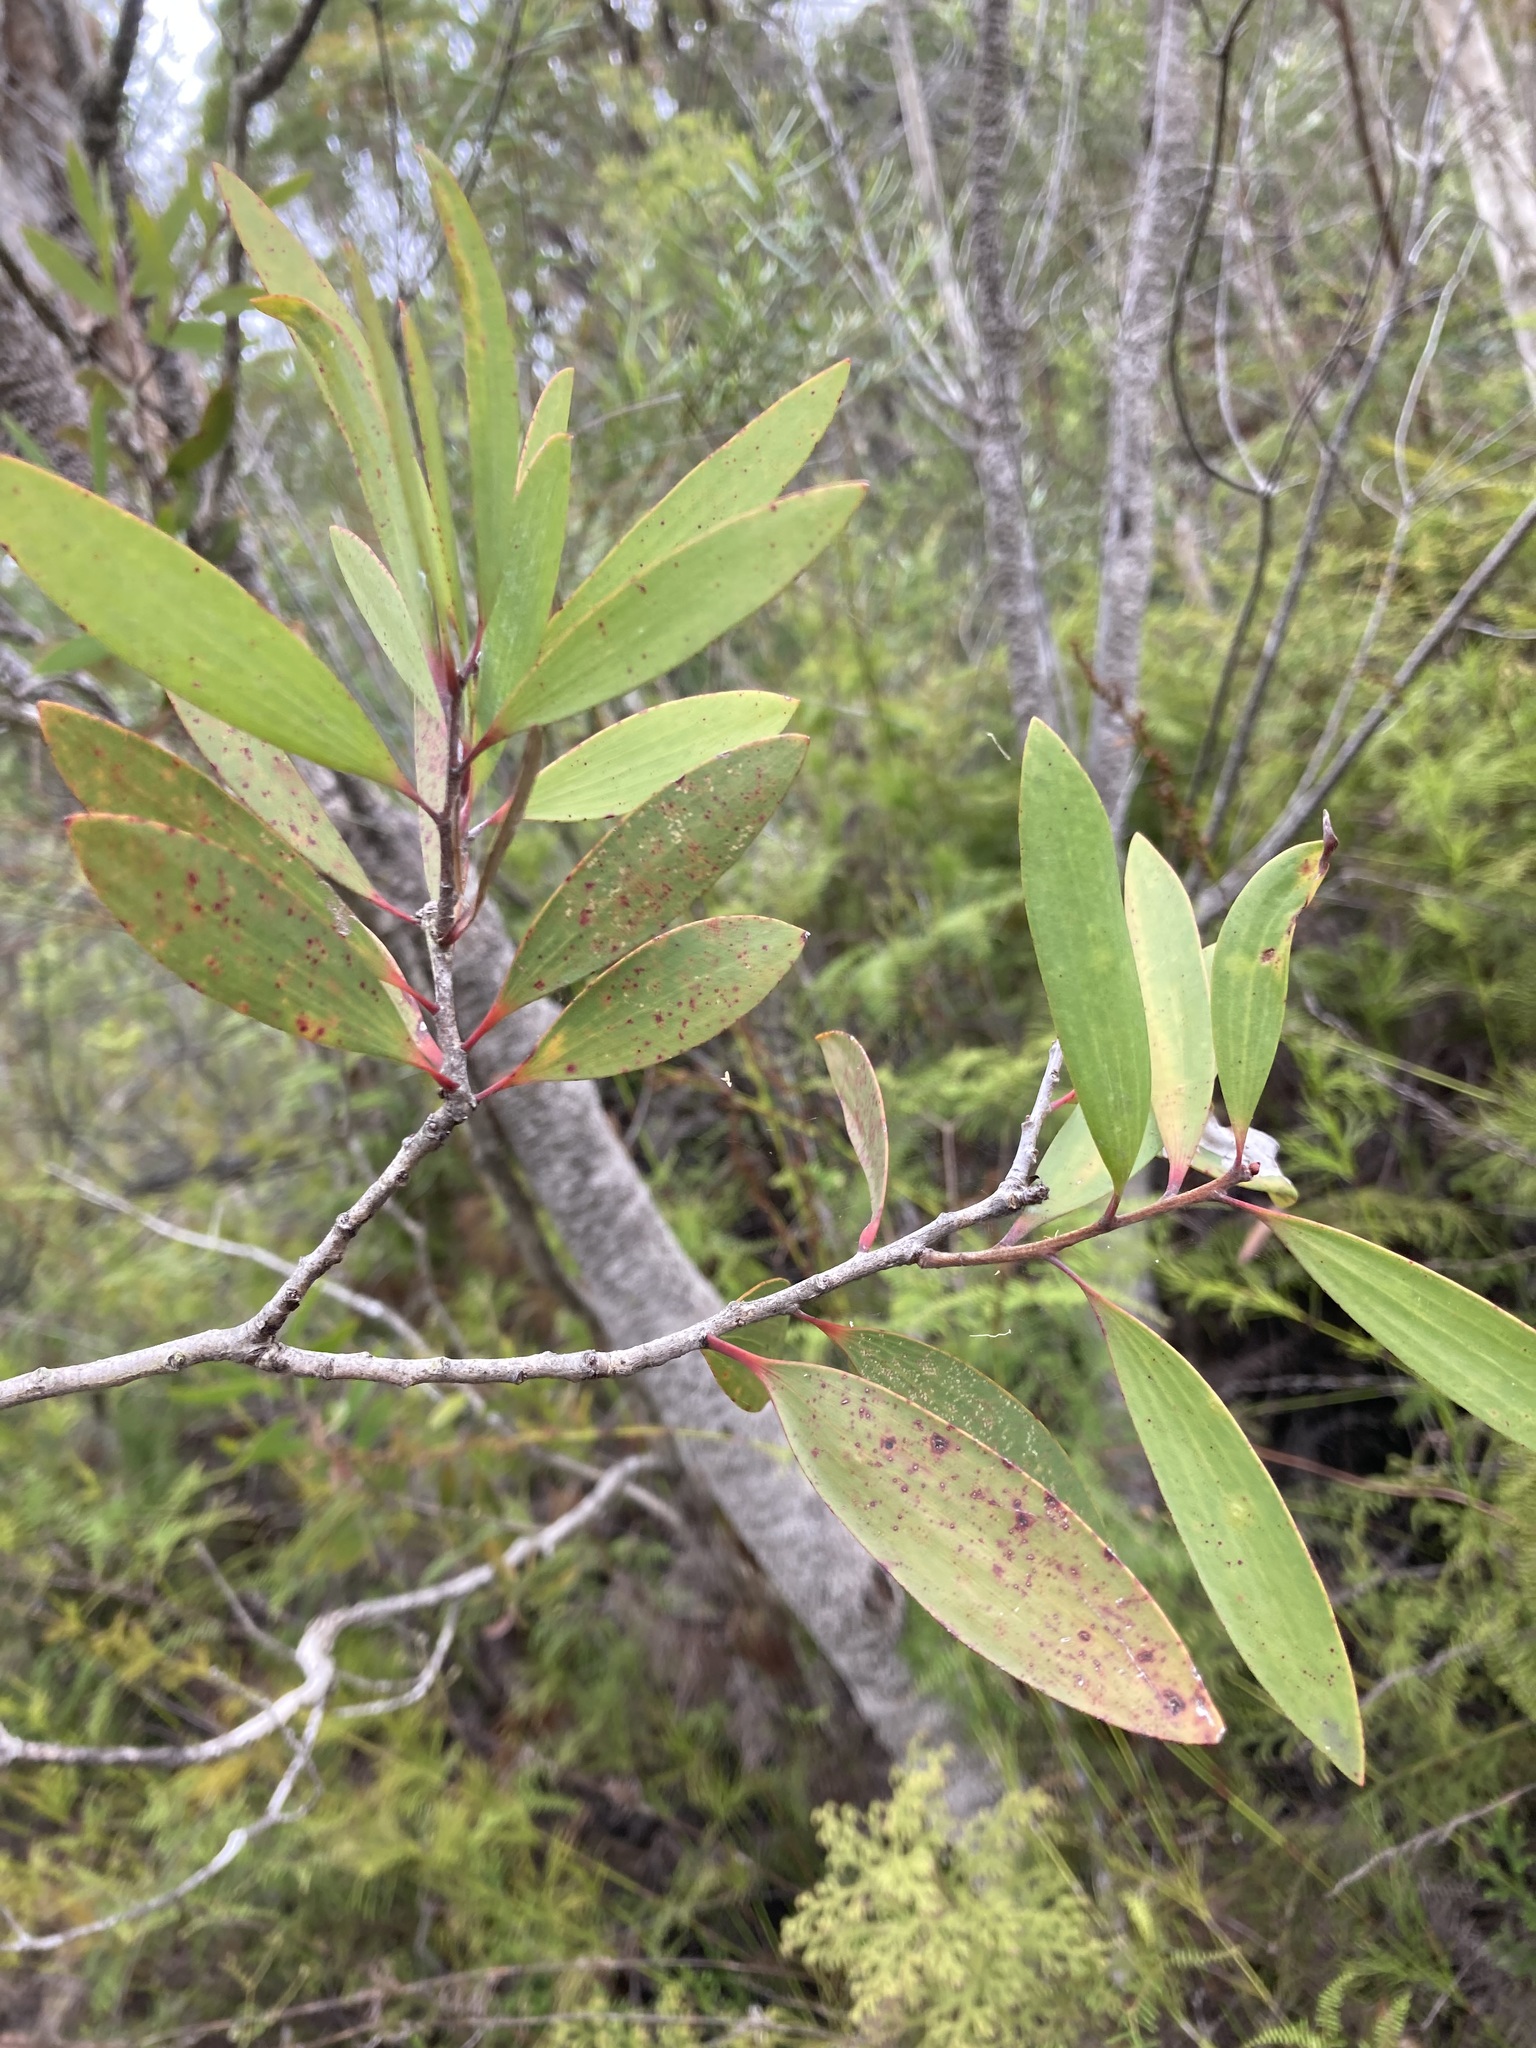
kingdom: Plantae
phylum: Tracheophyta
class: Magnoliopsida
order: Myrtales
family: Myrtaceae
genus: Melaleuca
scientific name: Melaleuca quinquenervia
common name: Punktree
